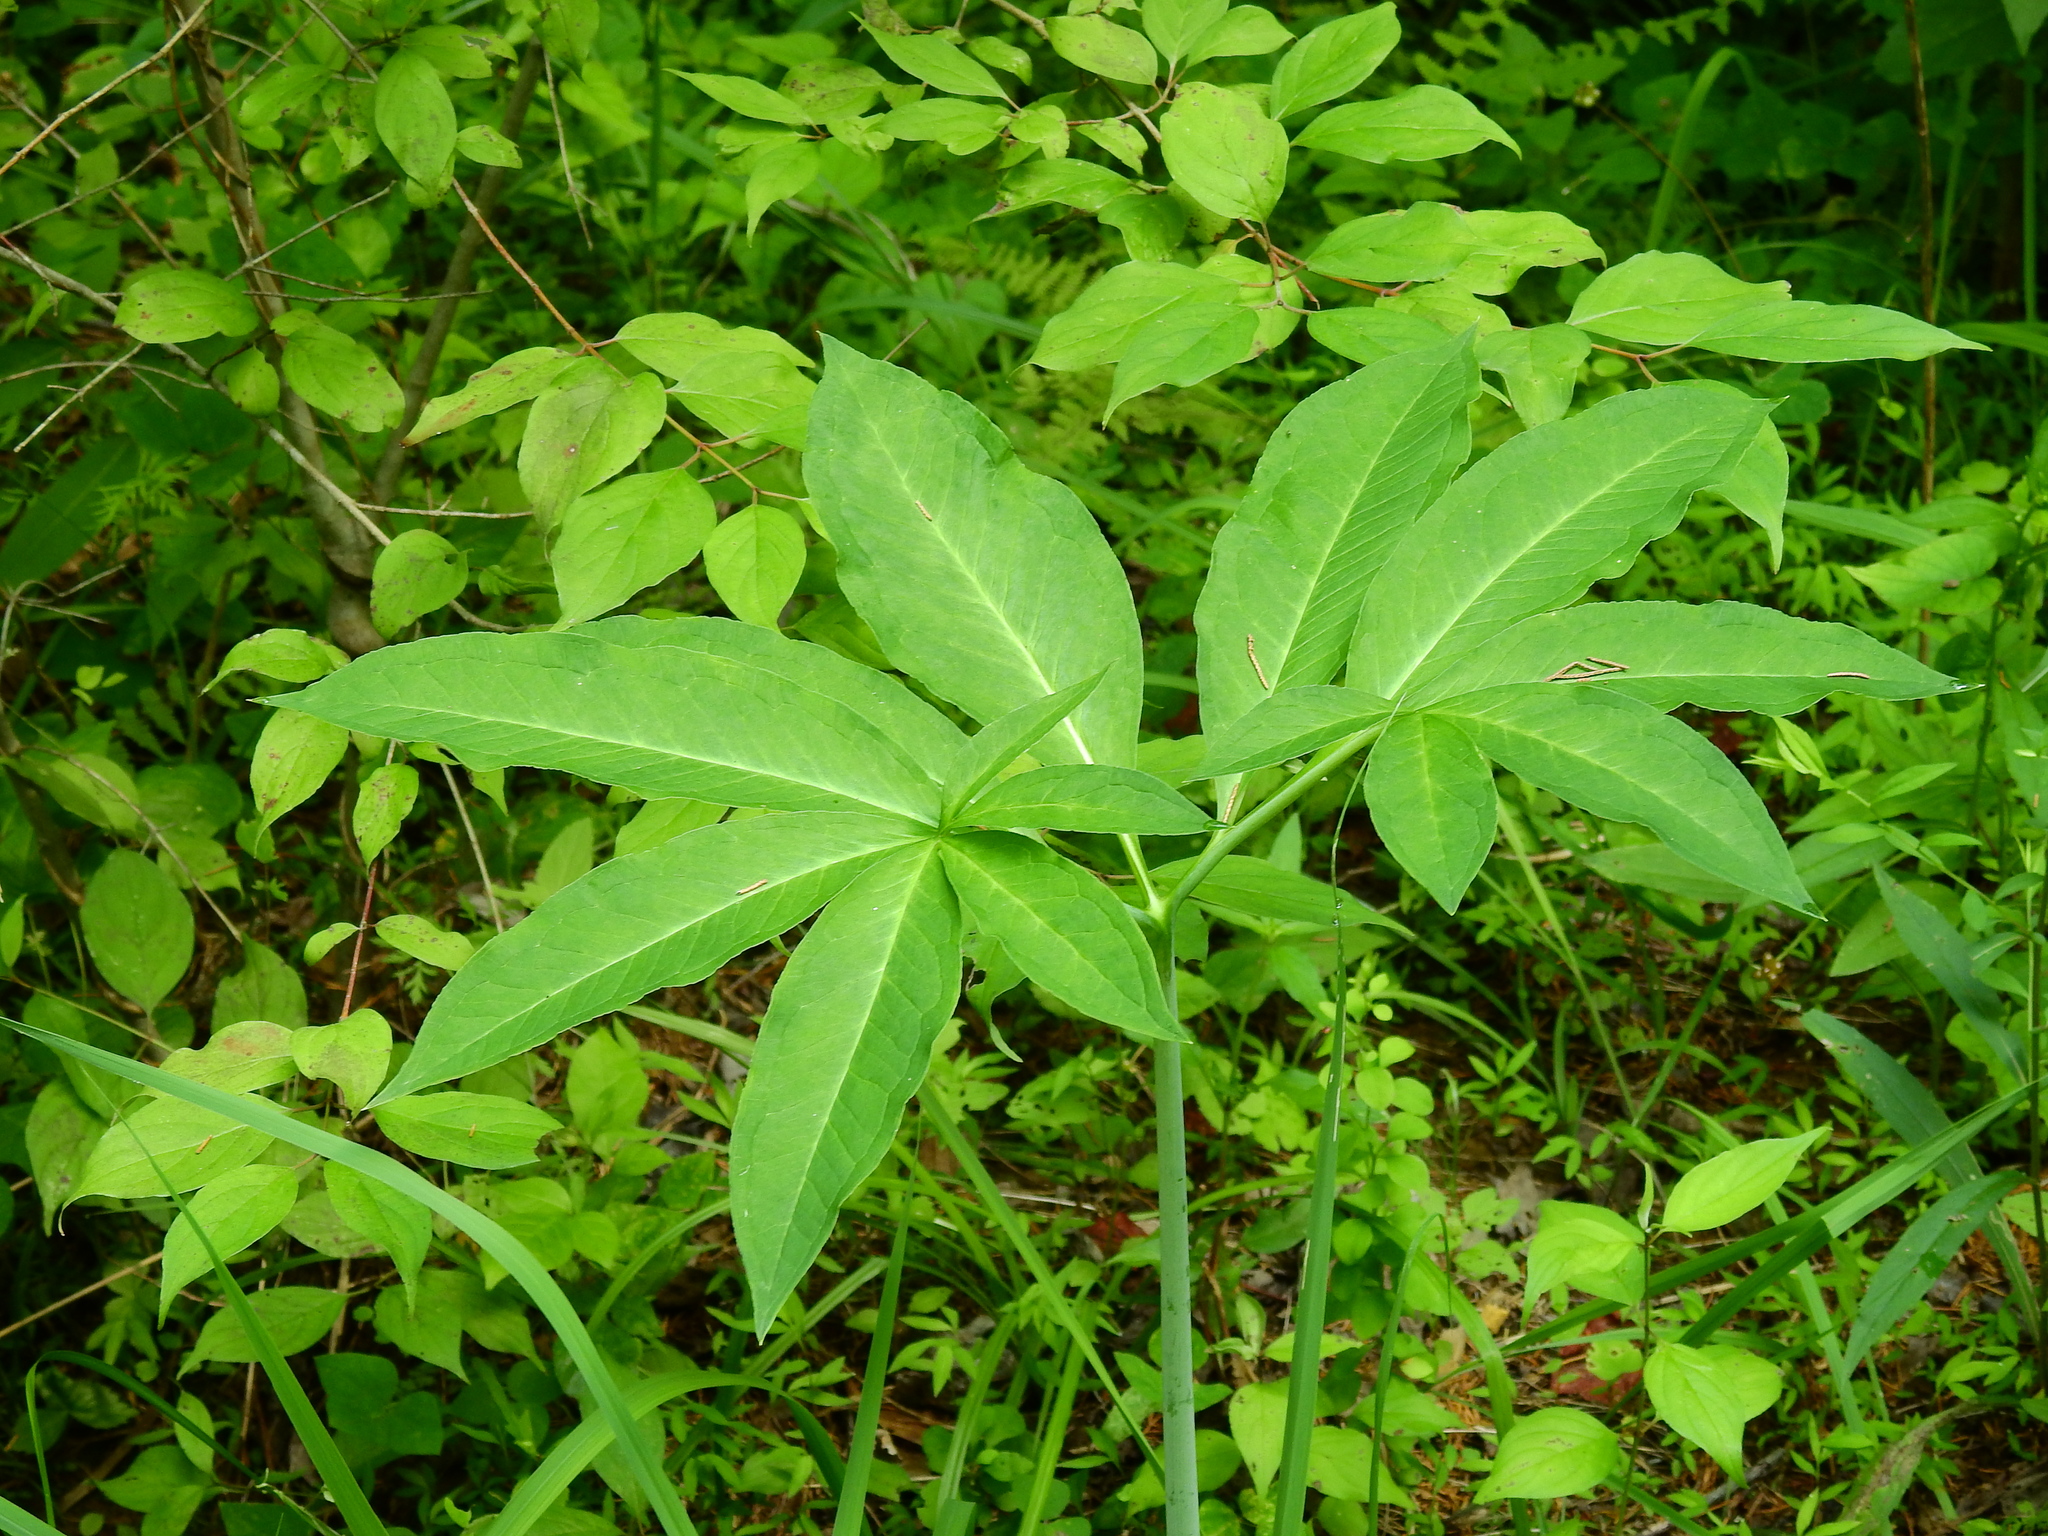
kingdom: Plantae
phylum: Tracheophyta
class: Liliopsida
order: Alismatales
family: Araceae
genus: Arisaema
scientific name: Arisaema dracontium
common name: Dragon-arum
